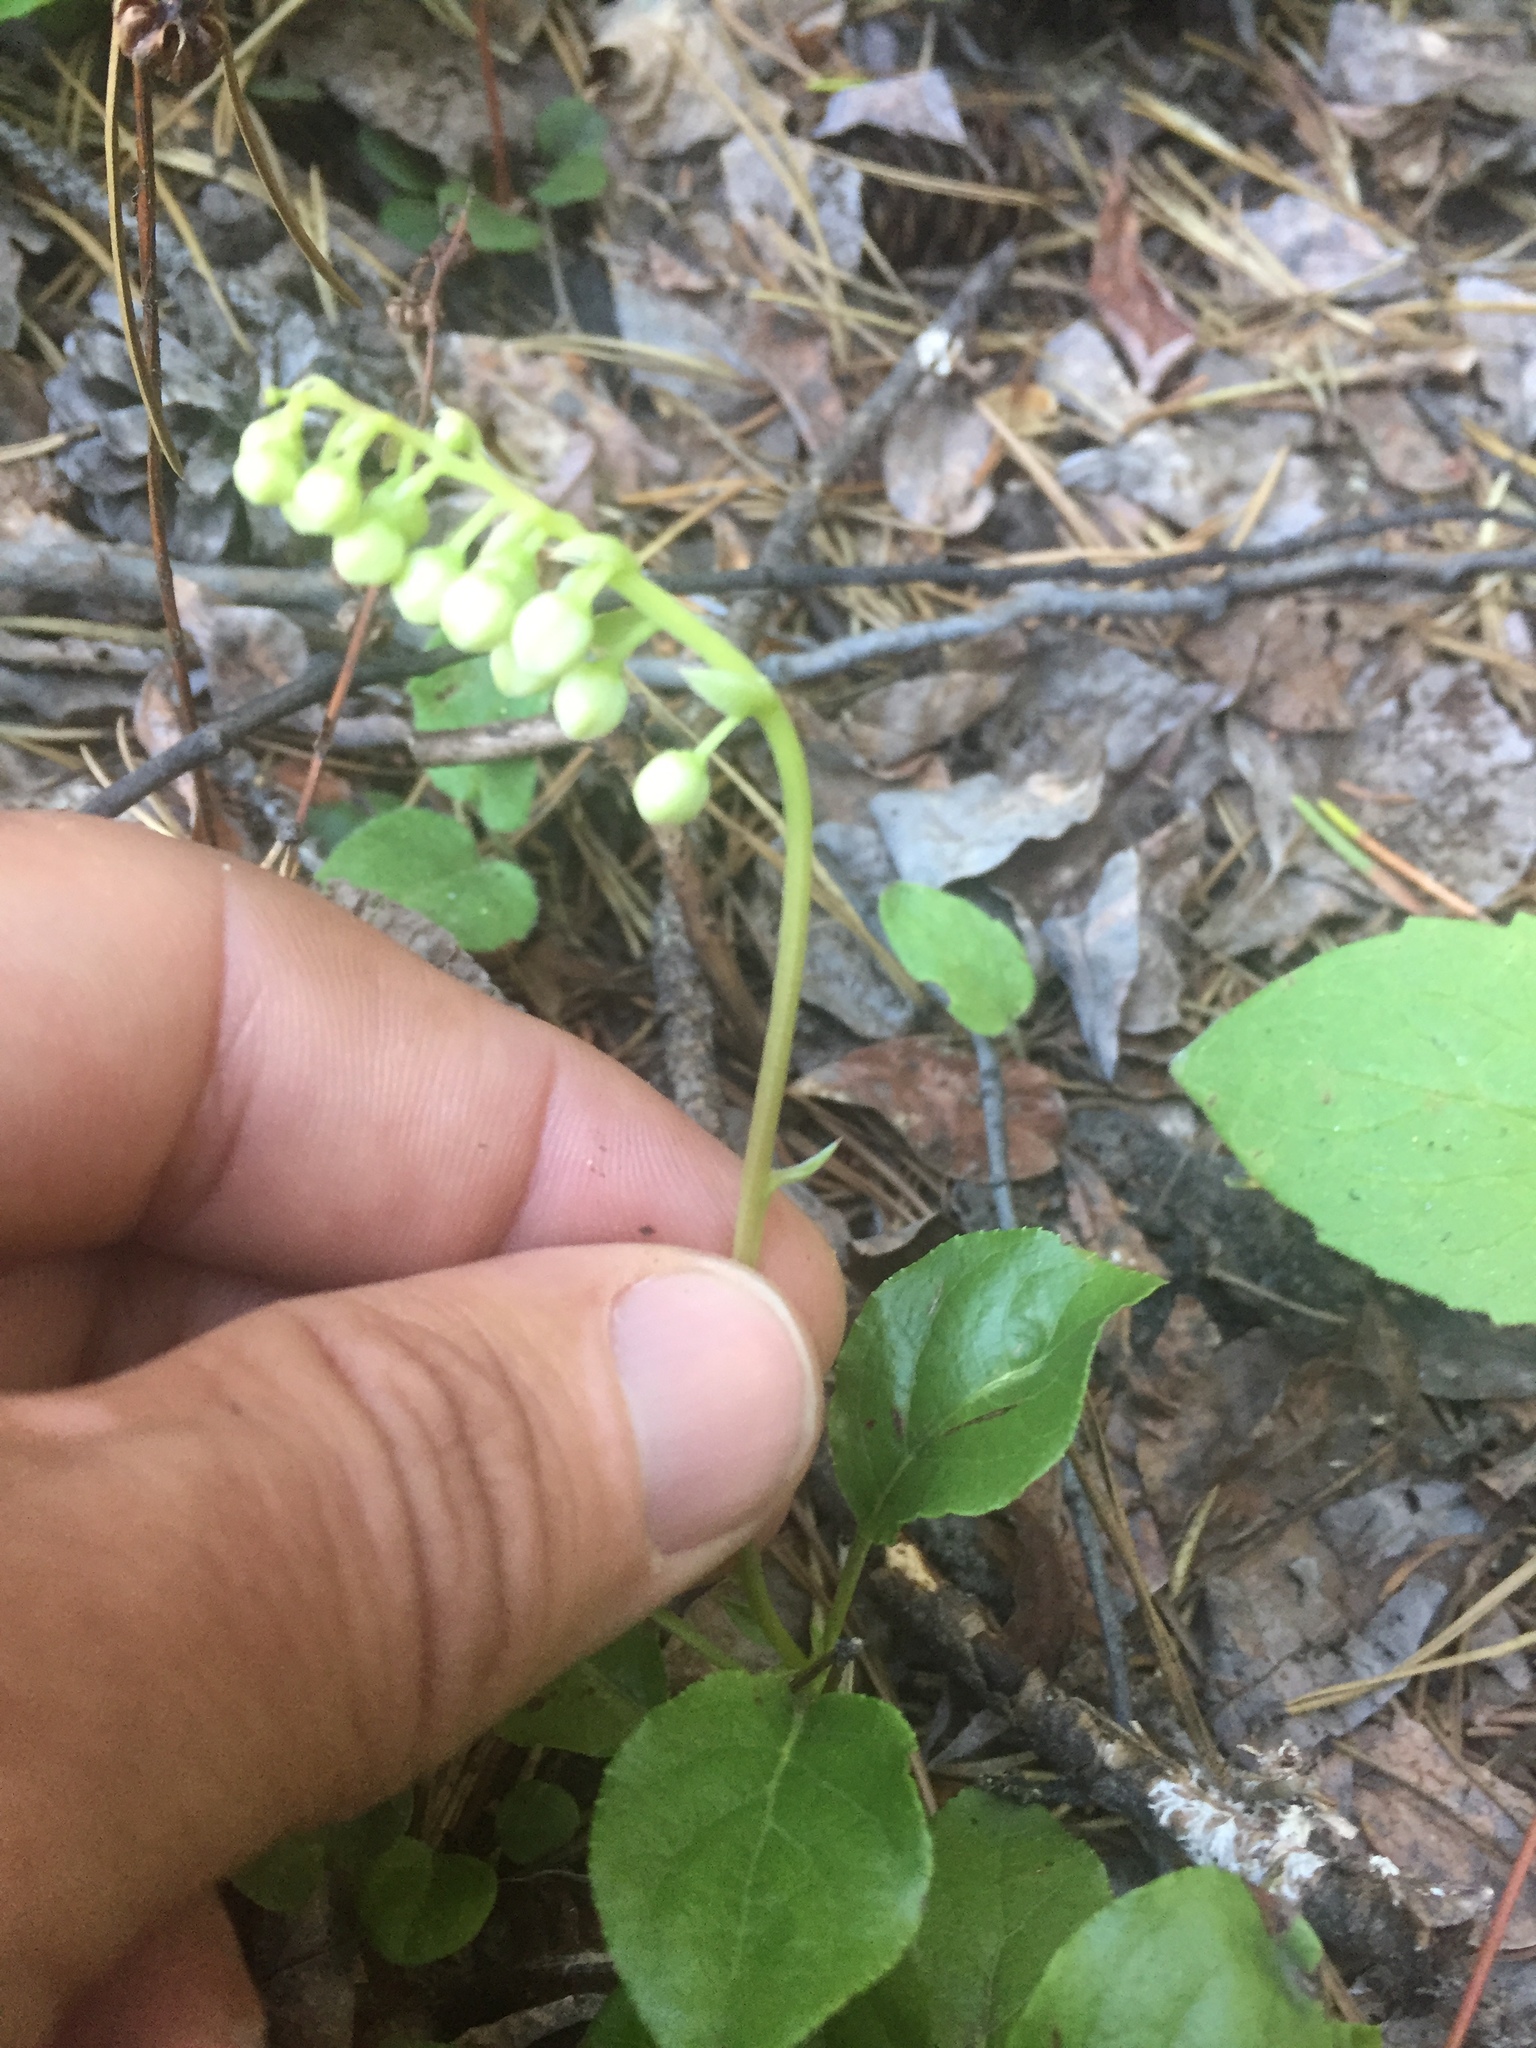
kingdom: Plantae
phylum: Tracheophyta
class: Magnoliopsida
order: Ericales
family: Ericaceae
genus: Orthilia
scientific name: Orthilia secunda
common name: One-sided orthilia
